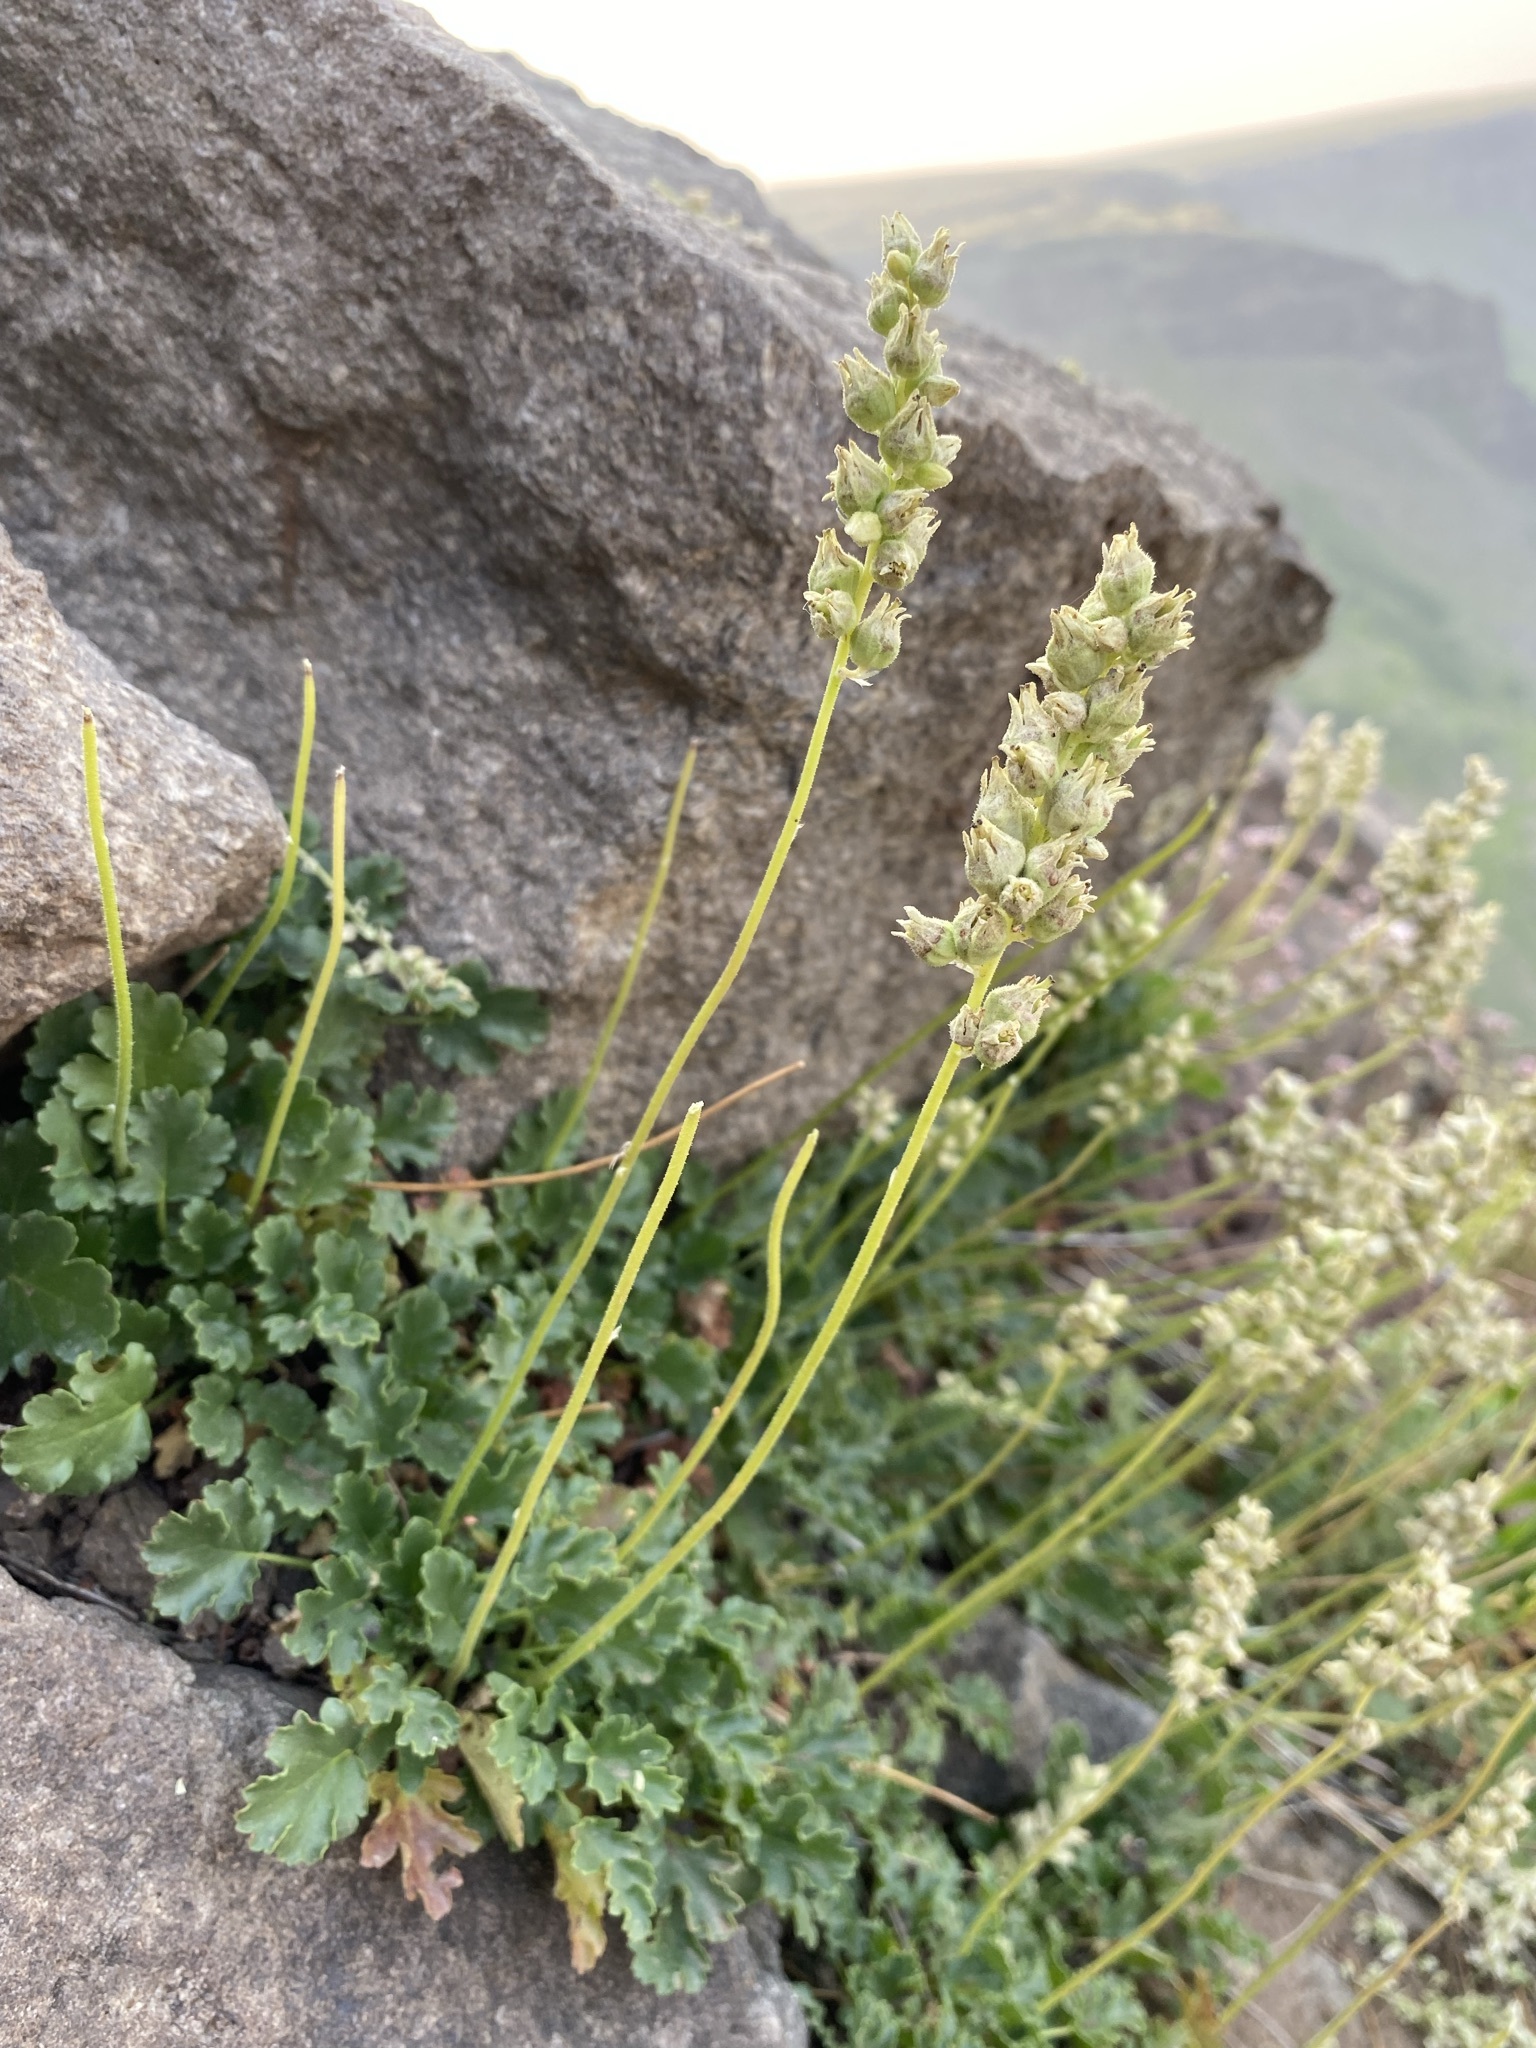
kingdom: Plantae
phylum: Tracheophyta
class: Magnoliopsida
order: Saxifragales
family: Saxifragaceae
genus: Heuchera
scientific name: Heuchera cylindrica
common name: Mat alumroot
